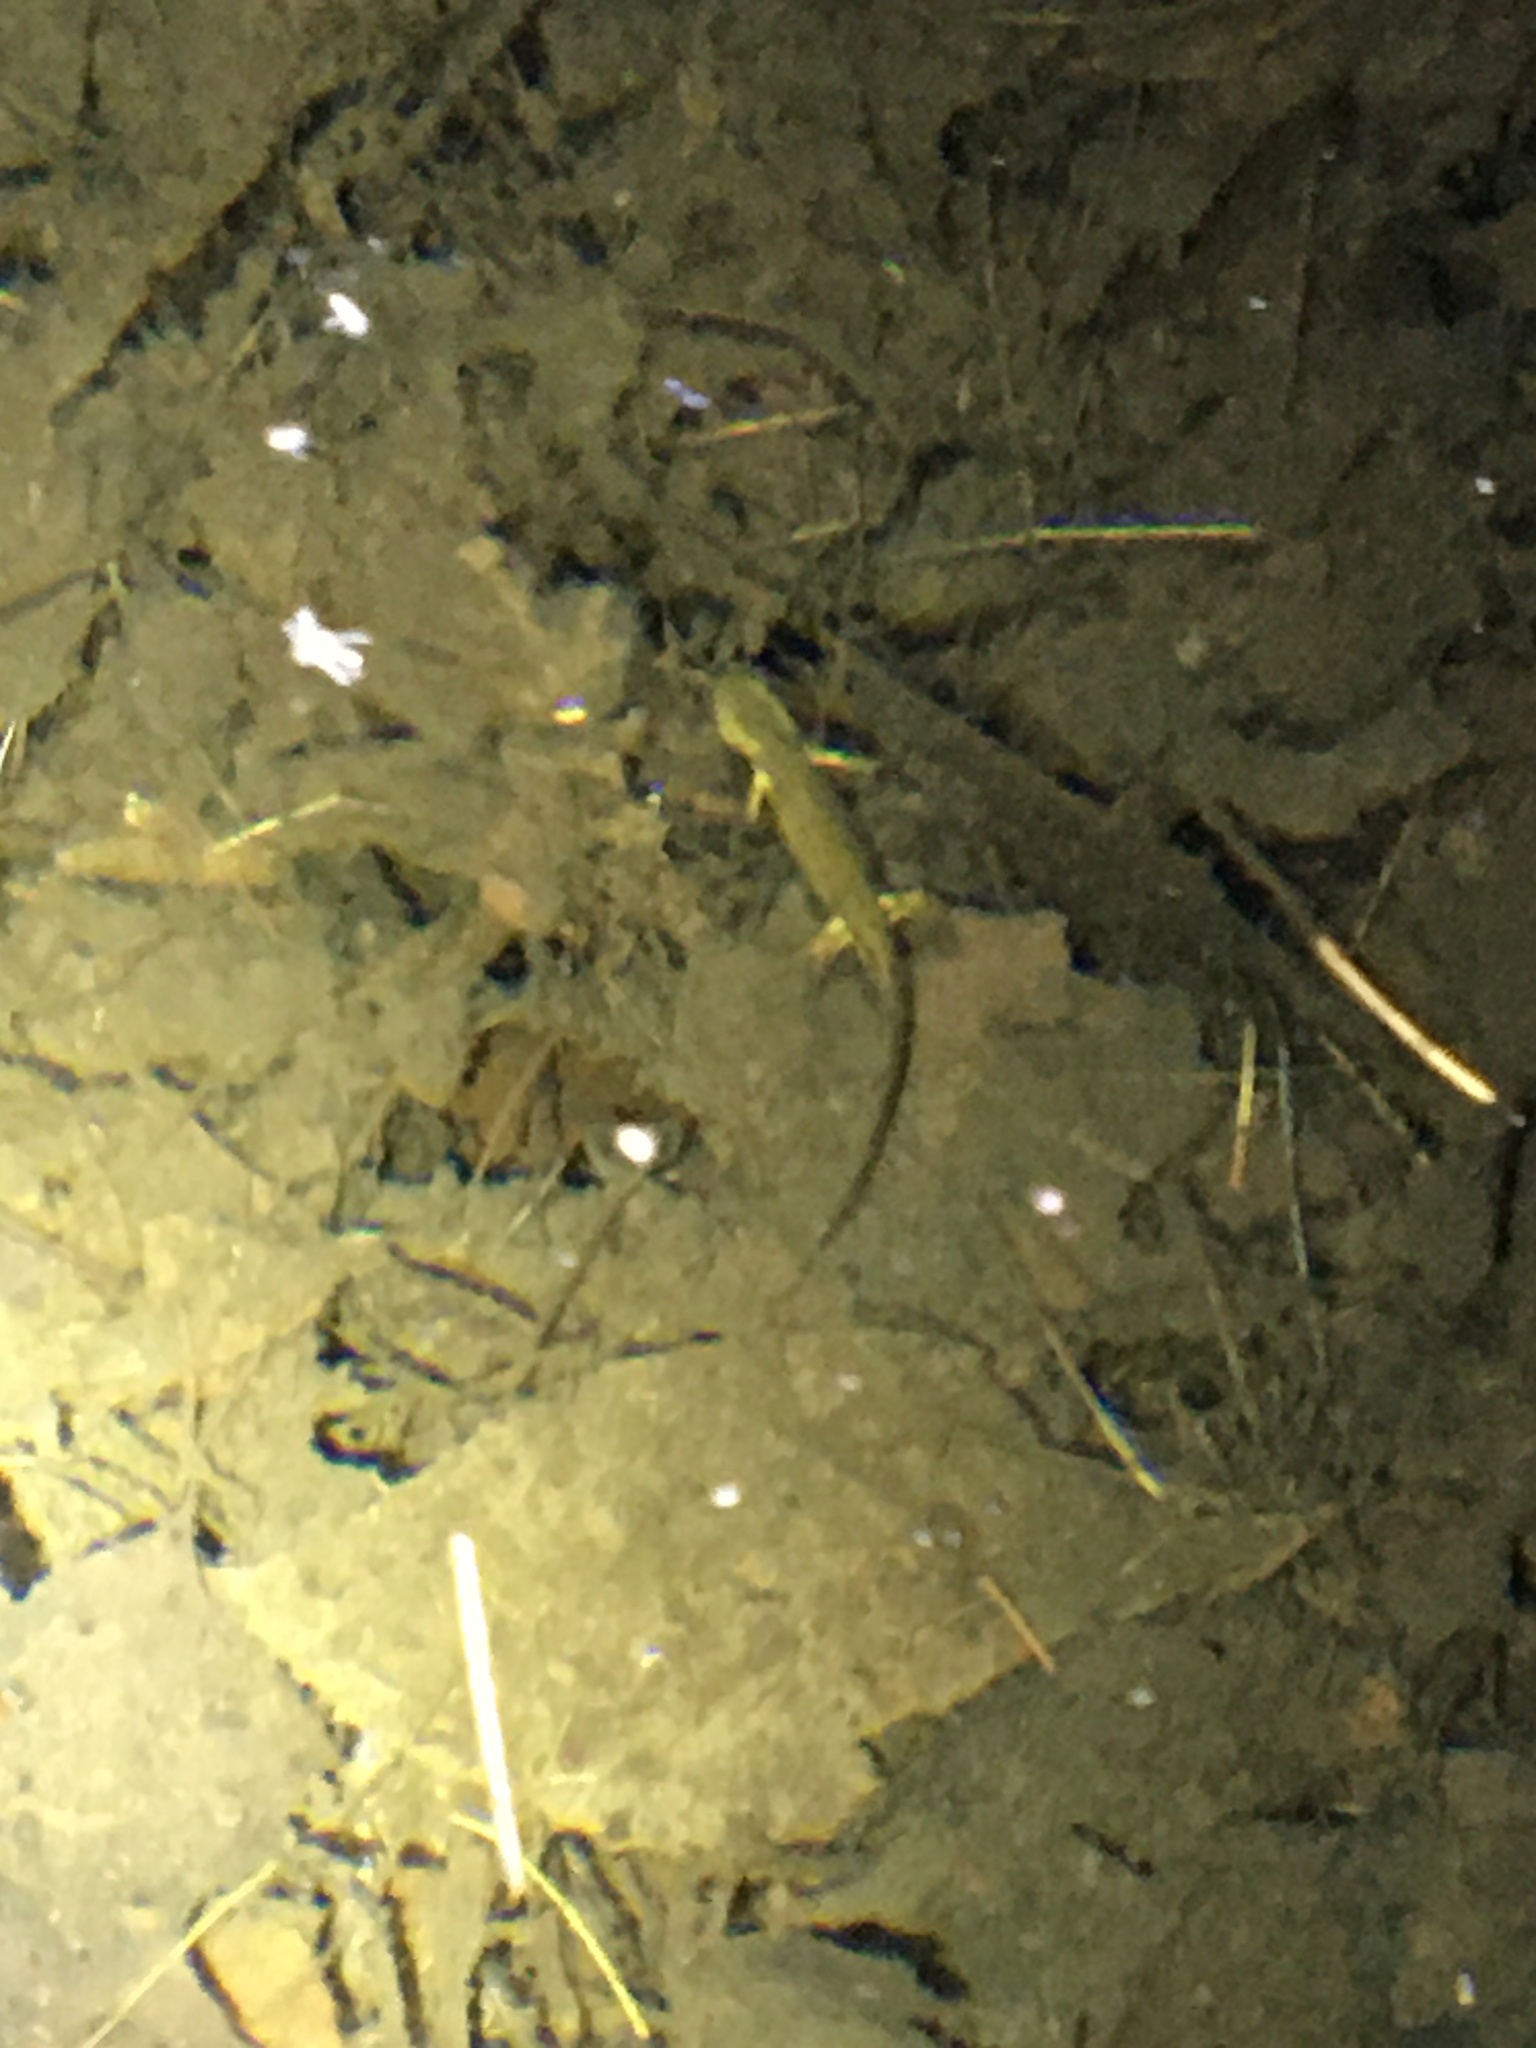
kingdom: Animalia
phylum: Chordata
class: Amphibia
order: Caudata
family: Salamandridae
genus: Notophthalmus
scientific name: Notophthalmus viridescens
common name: Eastern newt
